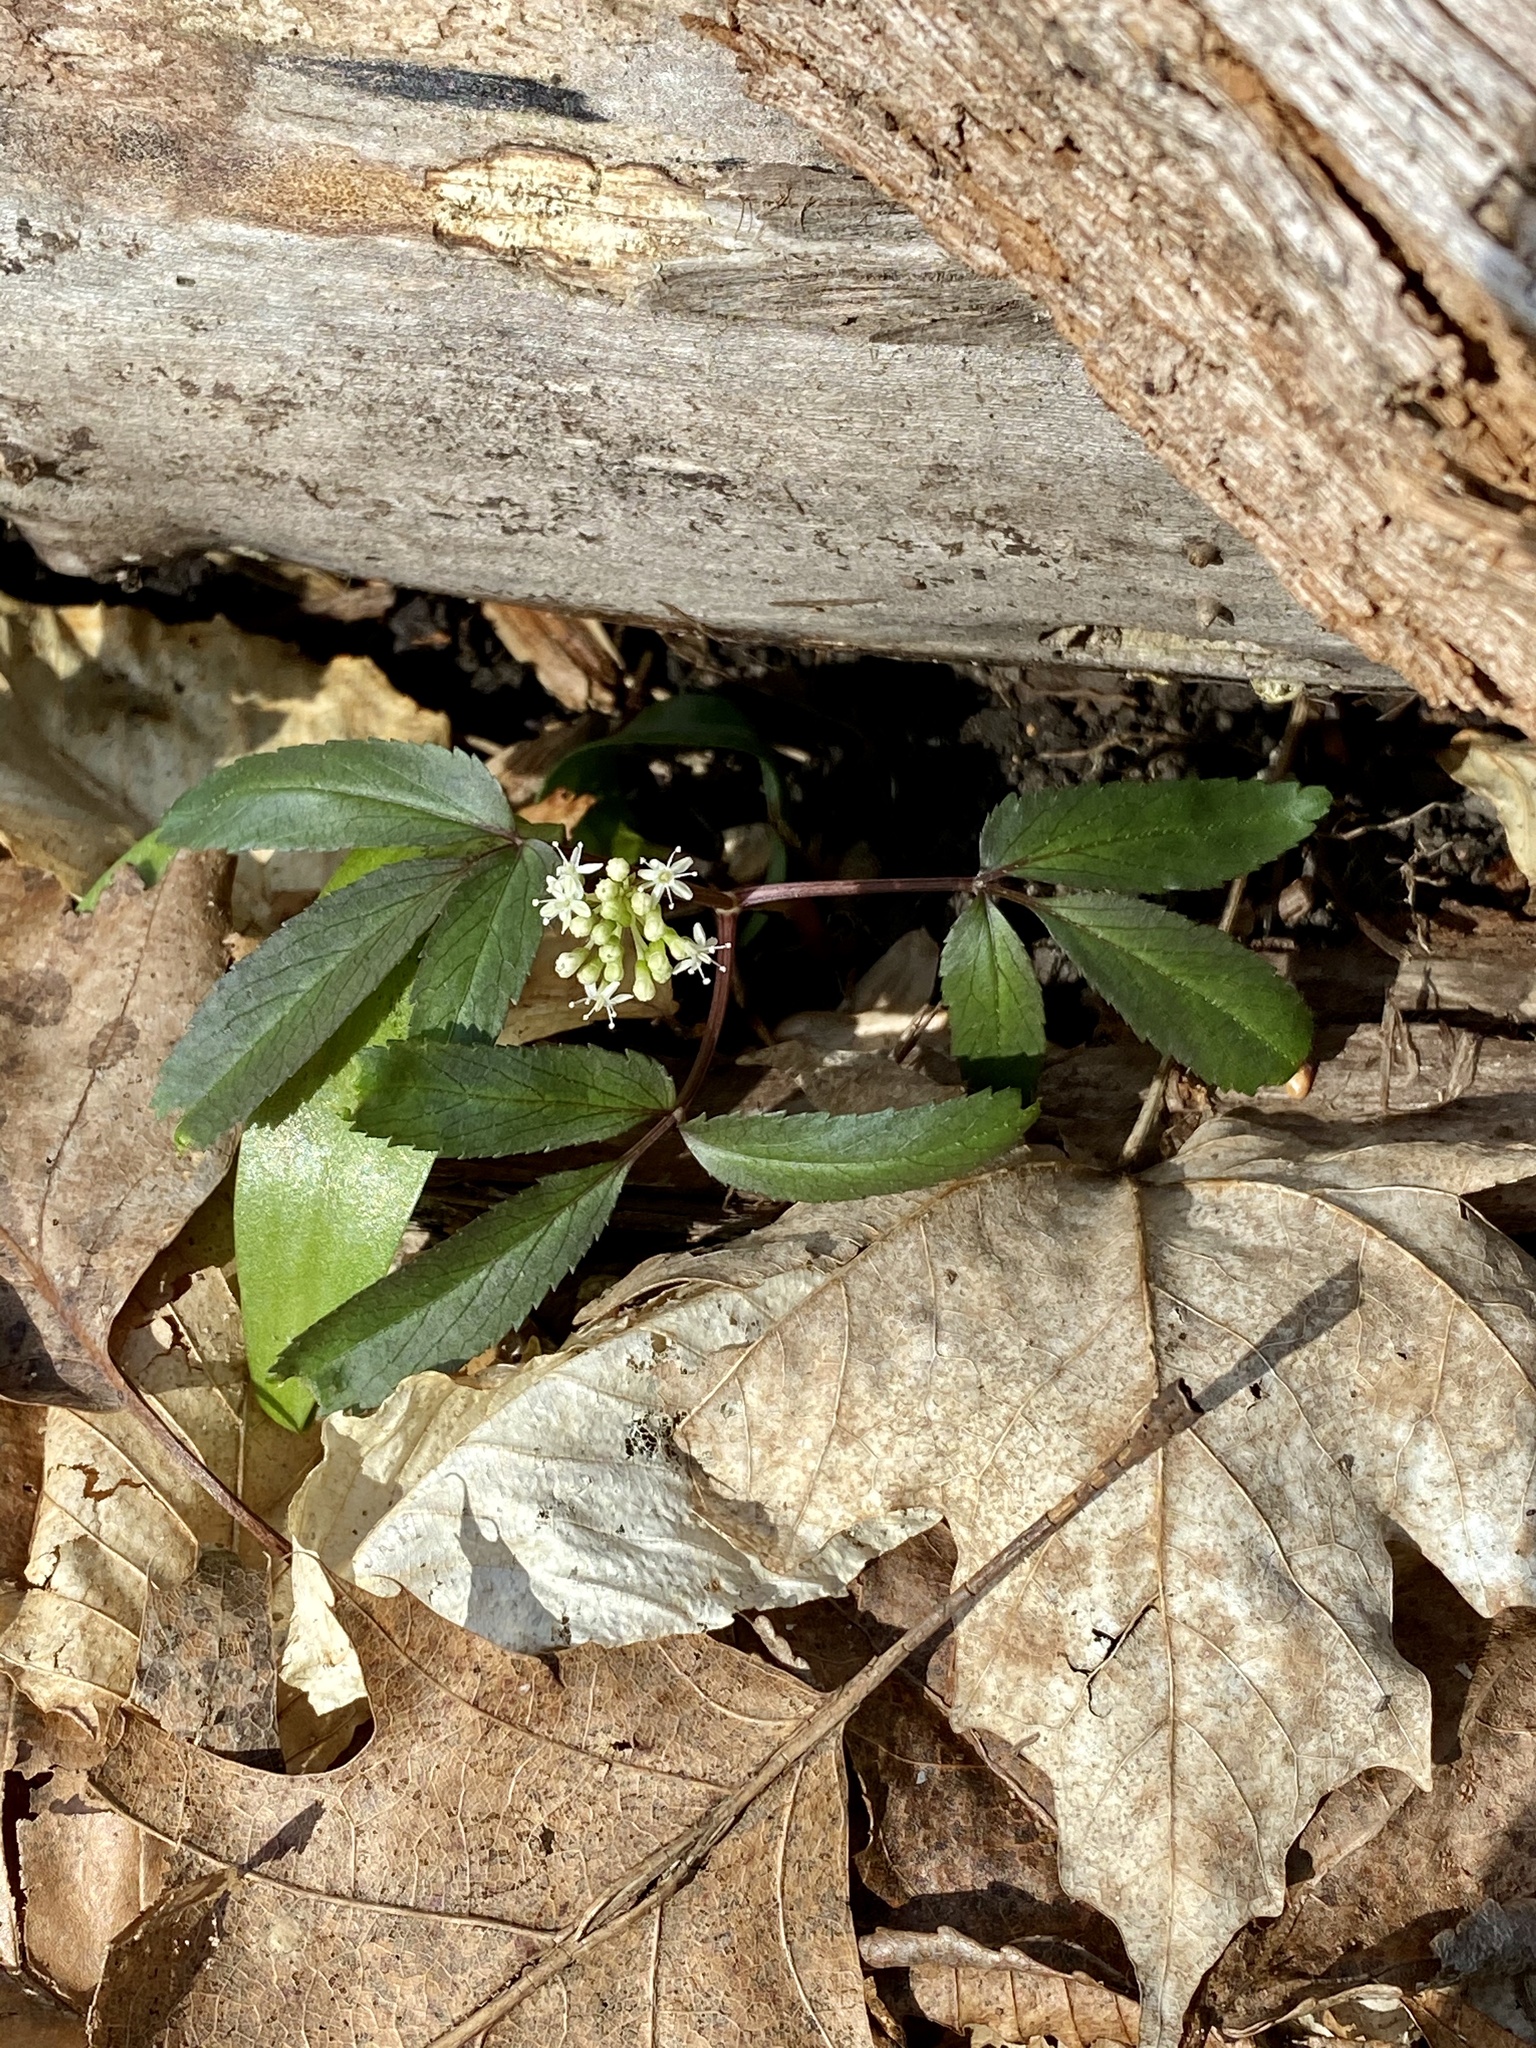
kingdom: Plantae
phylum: Tracheophyta
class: Magnoliopsida
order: Apiales
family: Araliaceae
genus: Panax
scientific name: Panax trifolius
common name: Dwarf ginseng
